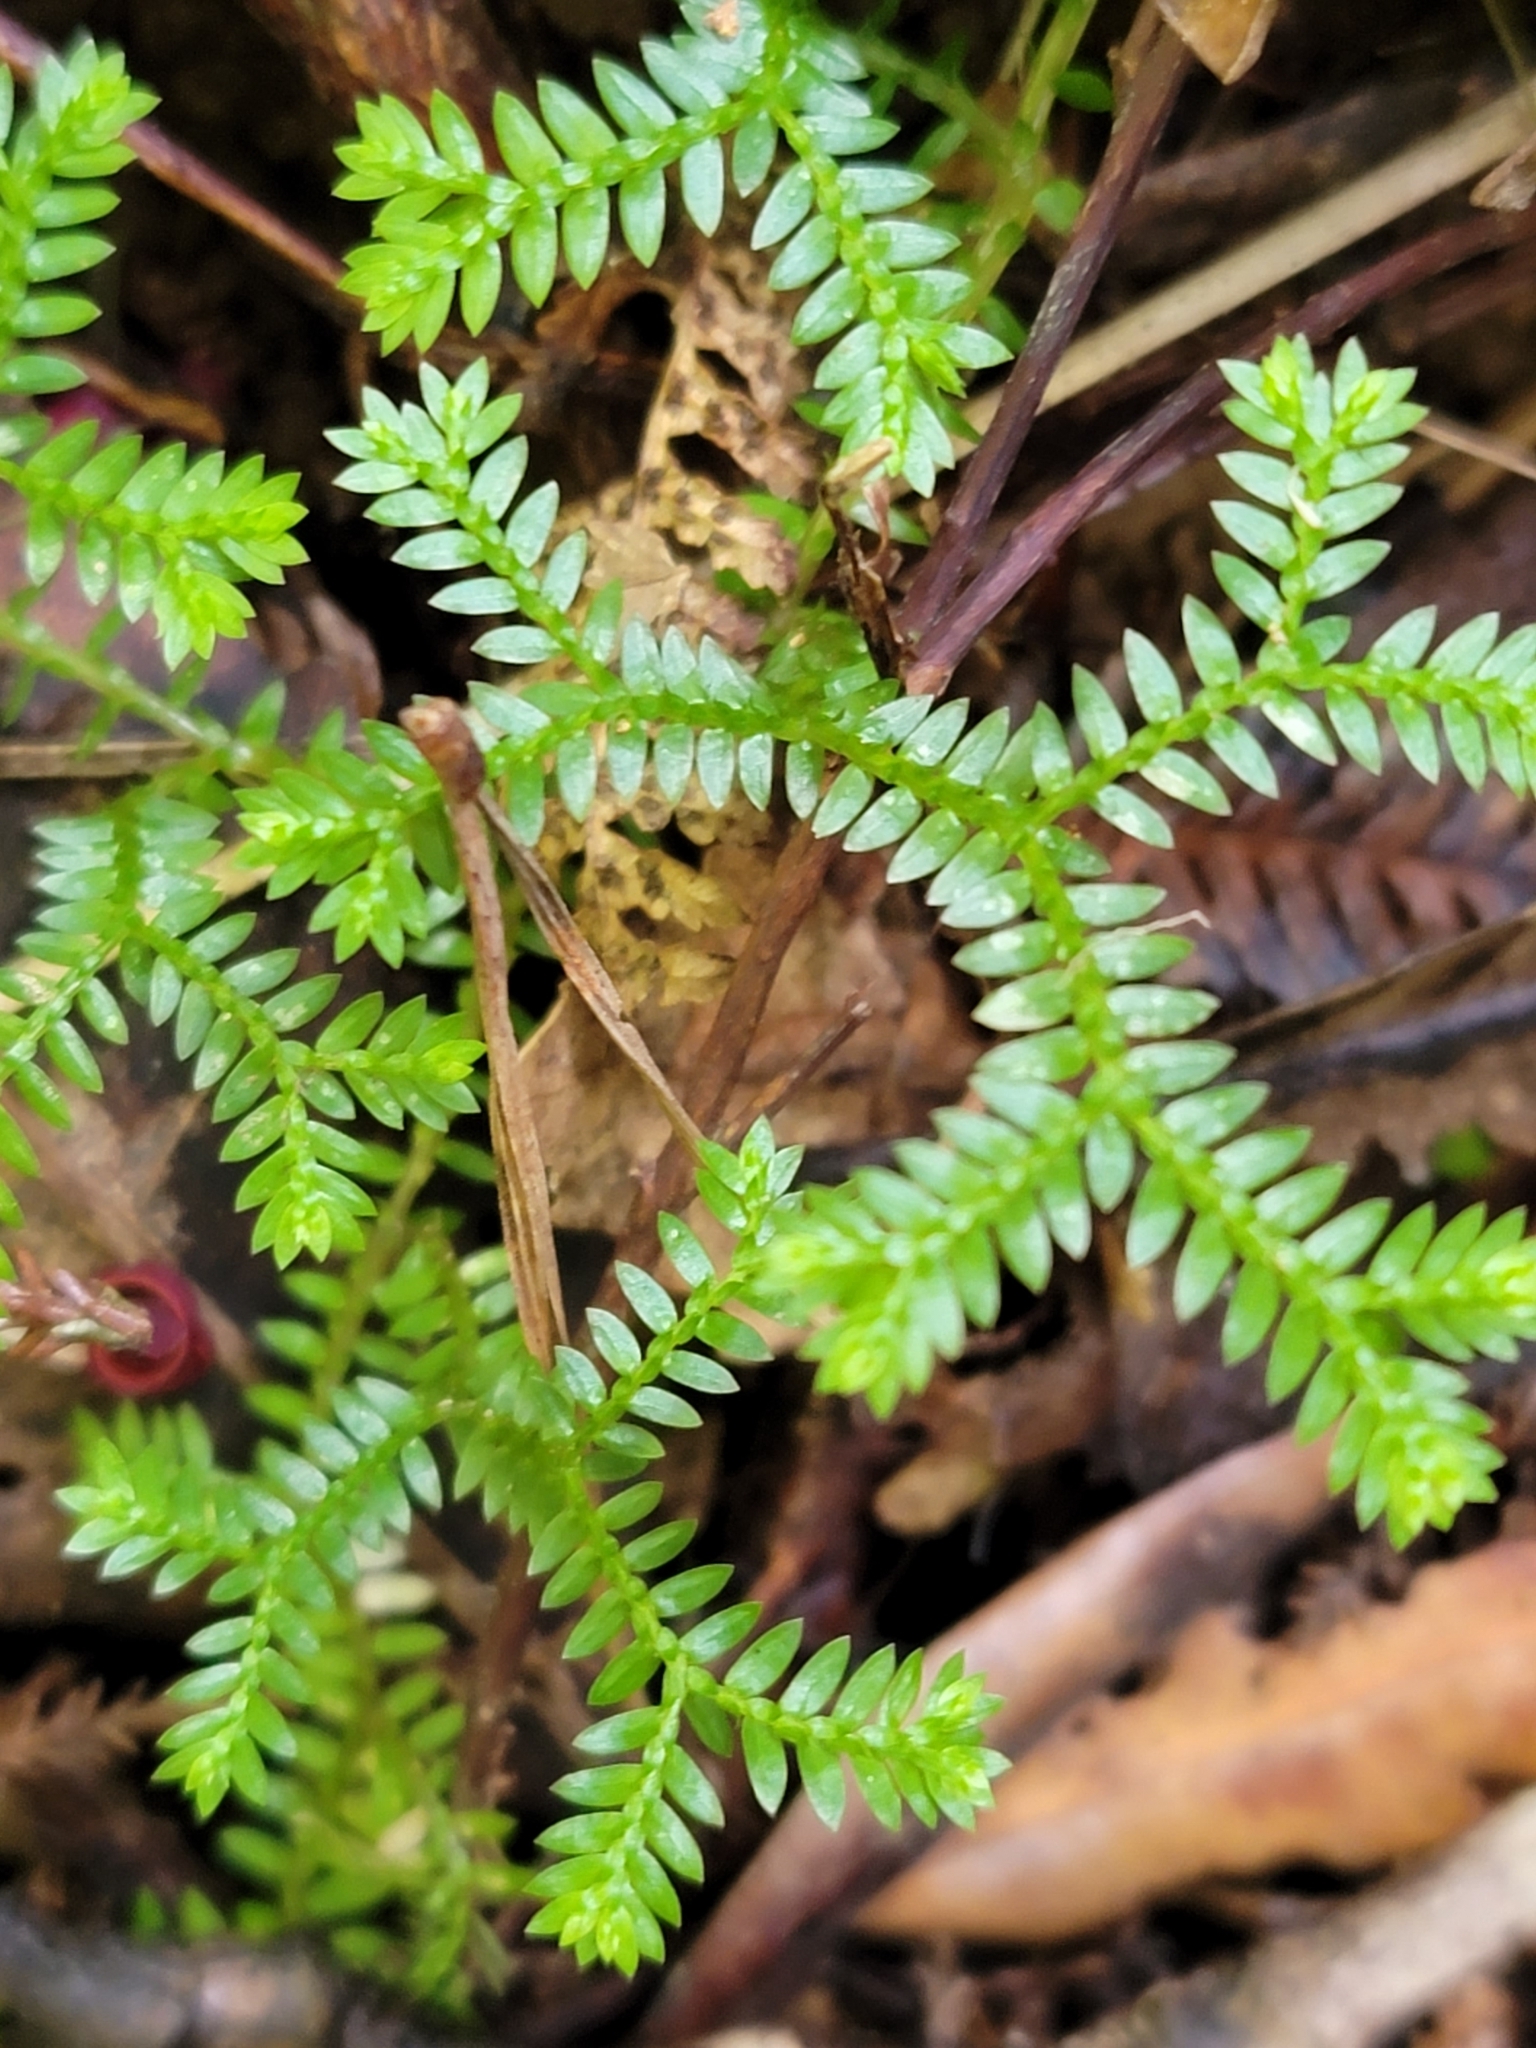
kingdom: Plantae
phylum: Tracheophyta
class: Lycopodiopsida
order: Selaginellales
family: Selaginellaceae
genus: Selaginella
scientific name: Selaginella kraussiana
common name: Krauss' spikemoss
